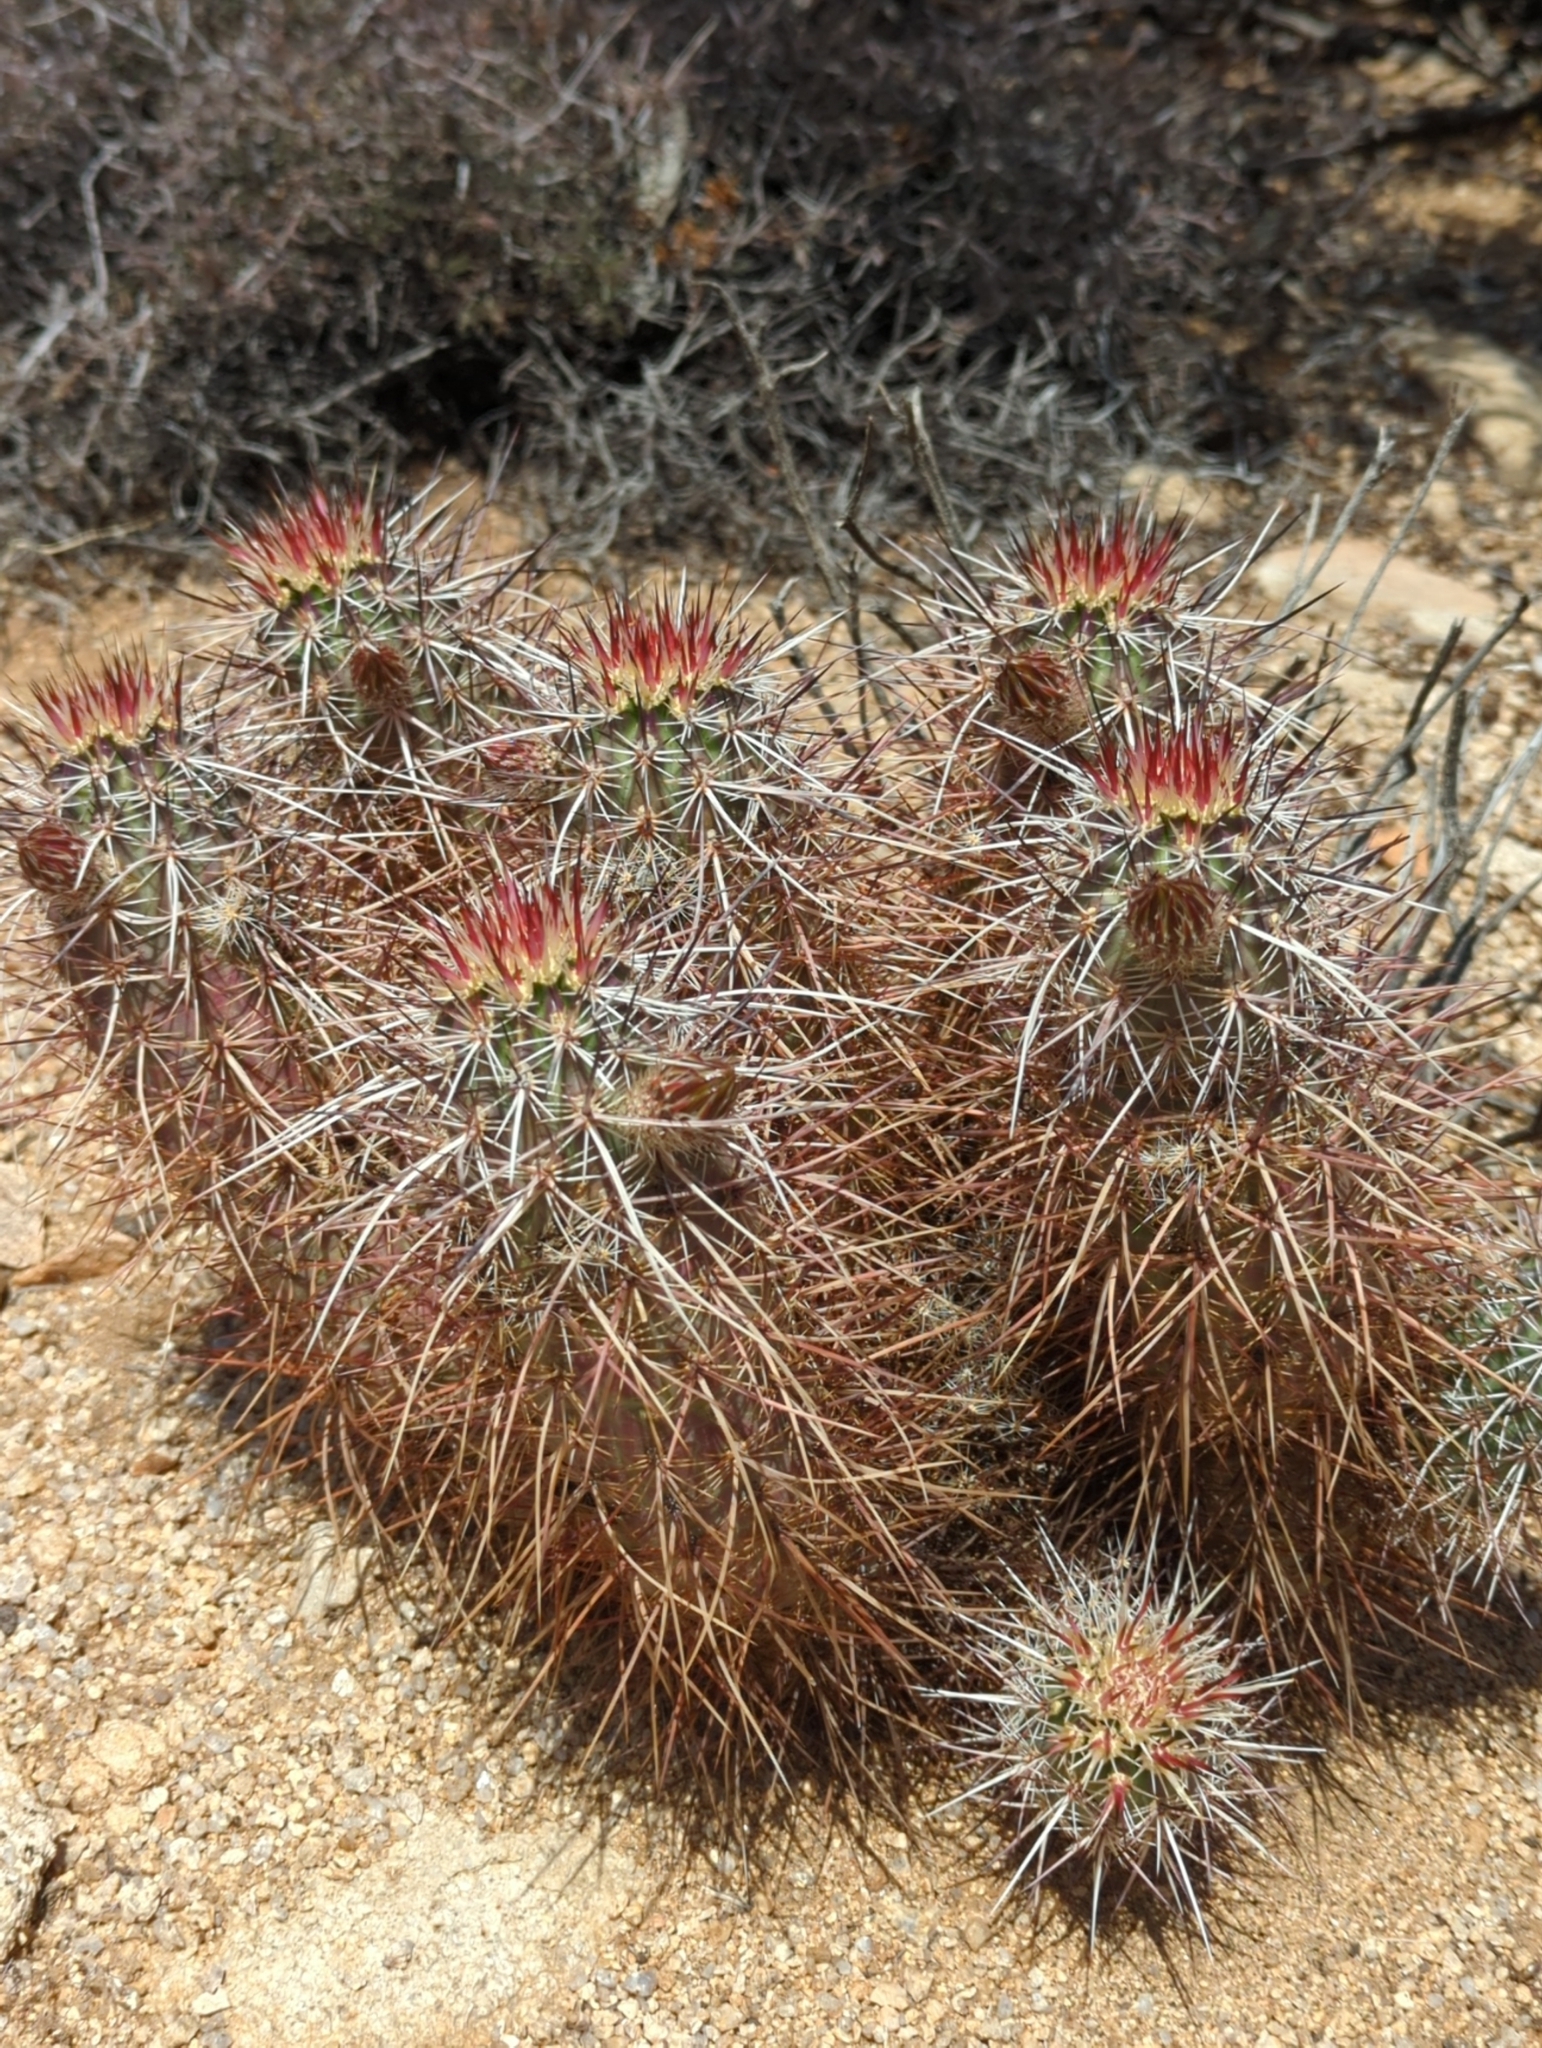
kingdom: Plantae
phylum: Tracheophyta
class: Magnoliopsida
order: Caryophyllales
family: Cactaceae
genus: Echinocereus
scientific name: Echinocereus engelmannii
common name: Engelmann's hedgehog cactus
